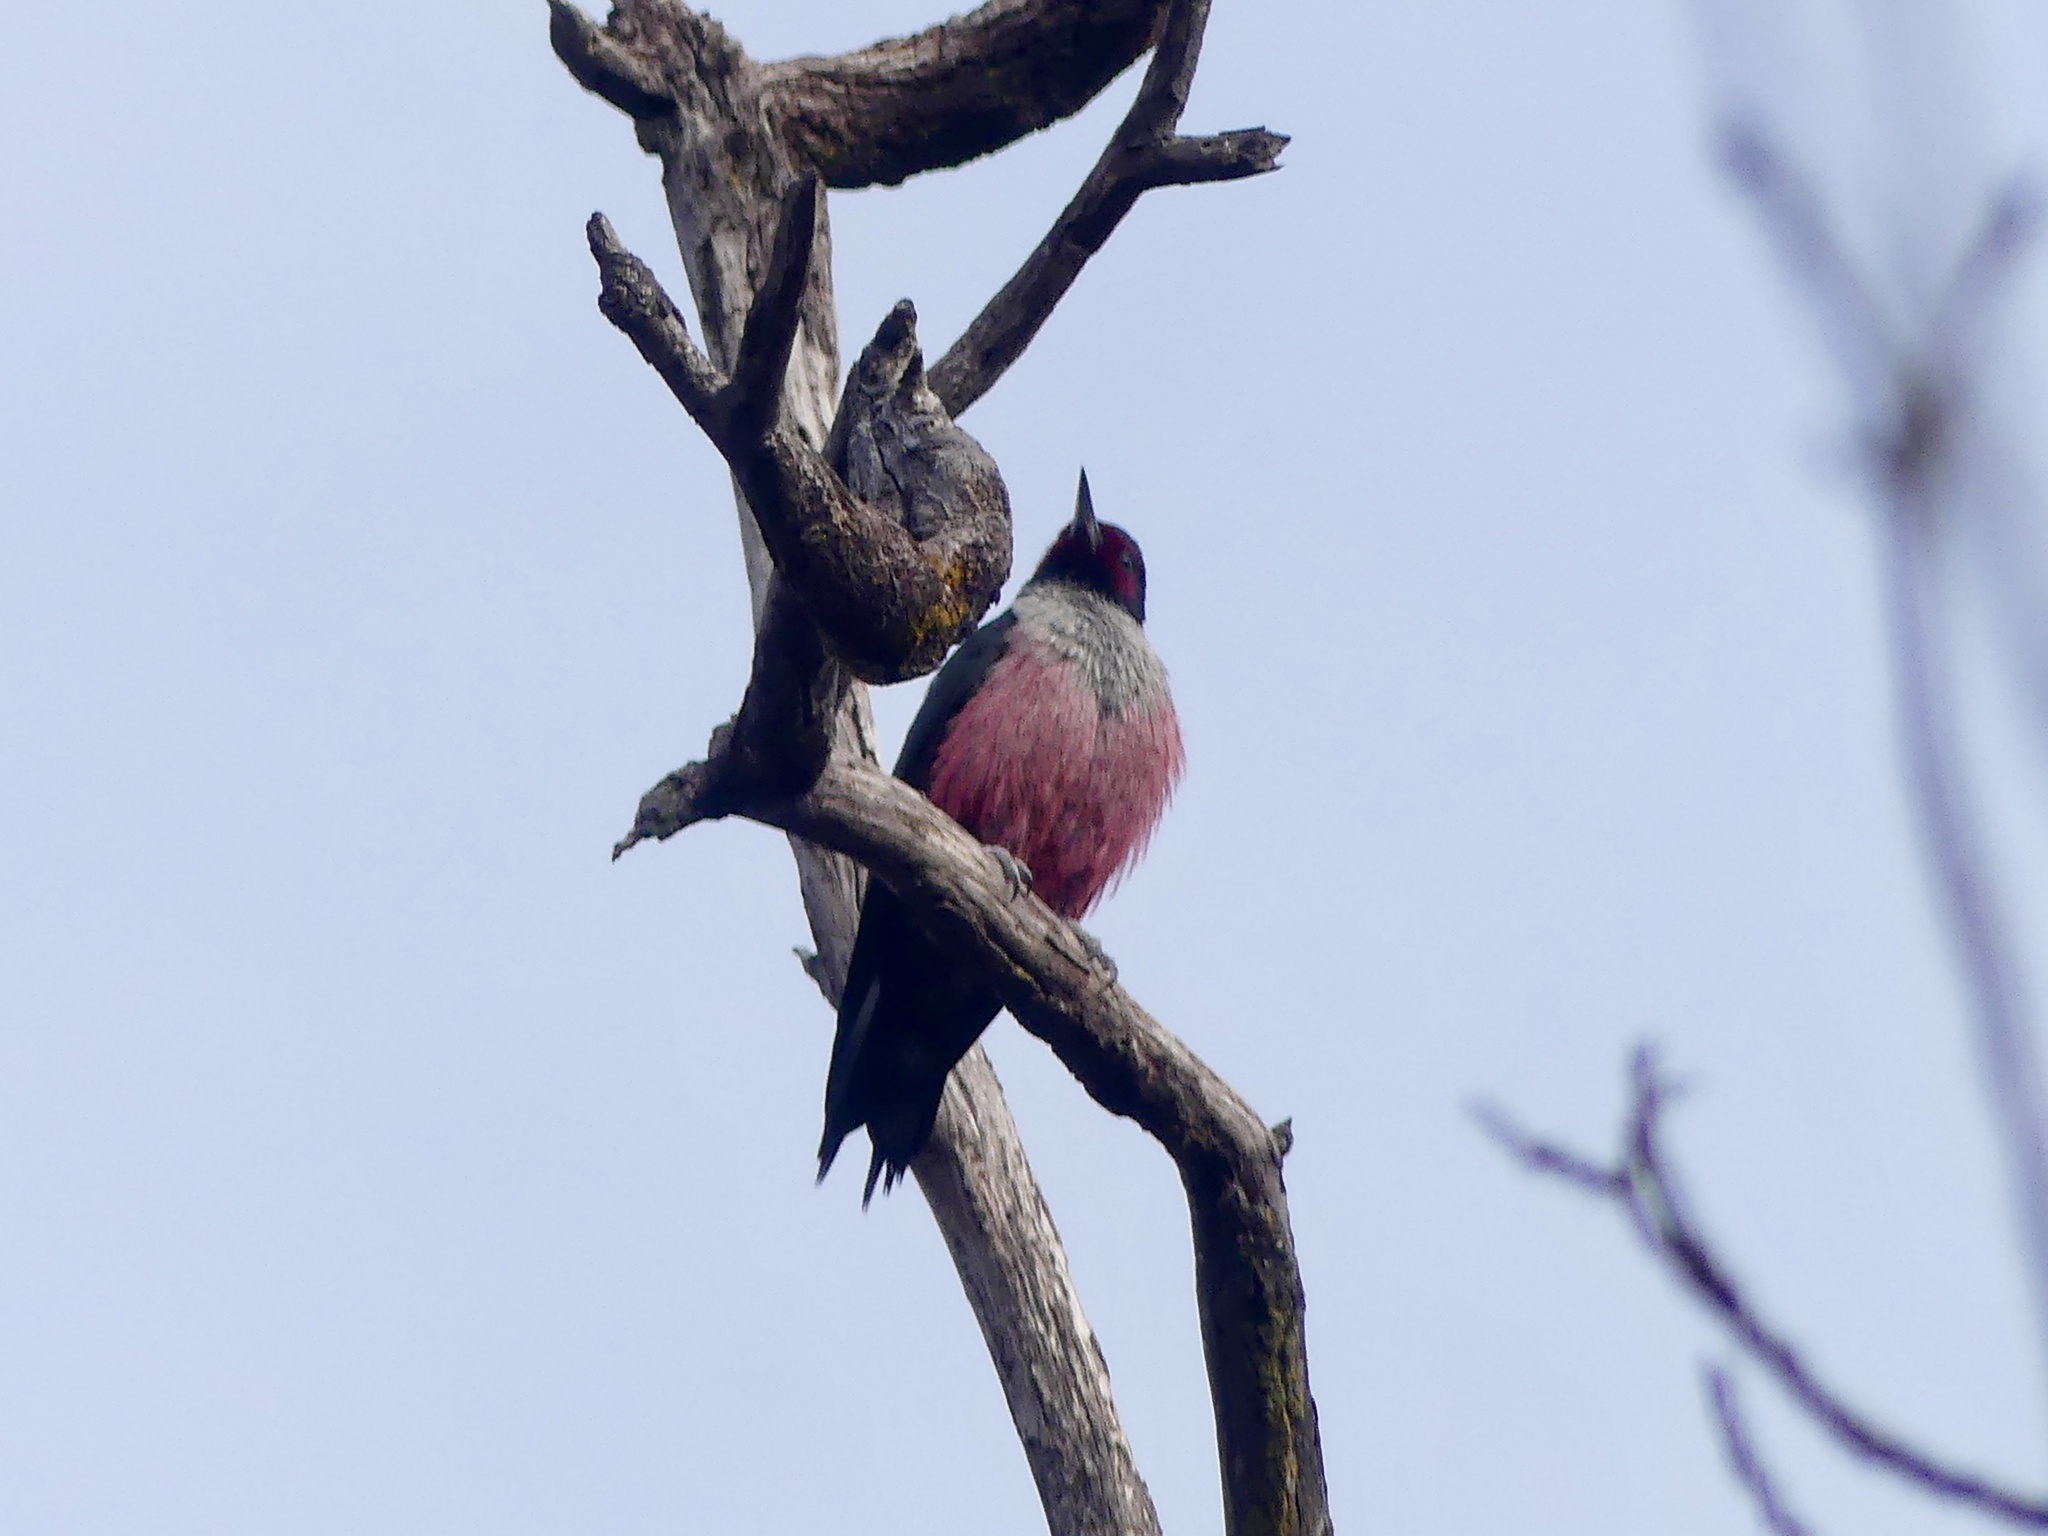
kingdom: Animalia
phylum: Chordata
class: Aves
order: Piciformes
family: Picidae
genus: Melanerpes
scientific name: Melanerpes lewis
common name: Lewis's woodpecker
